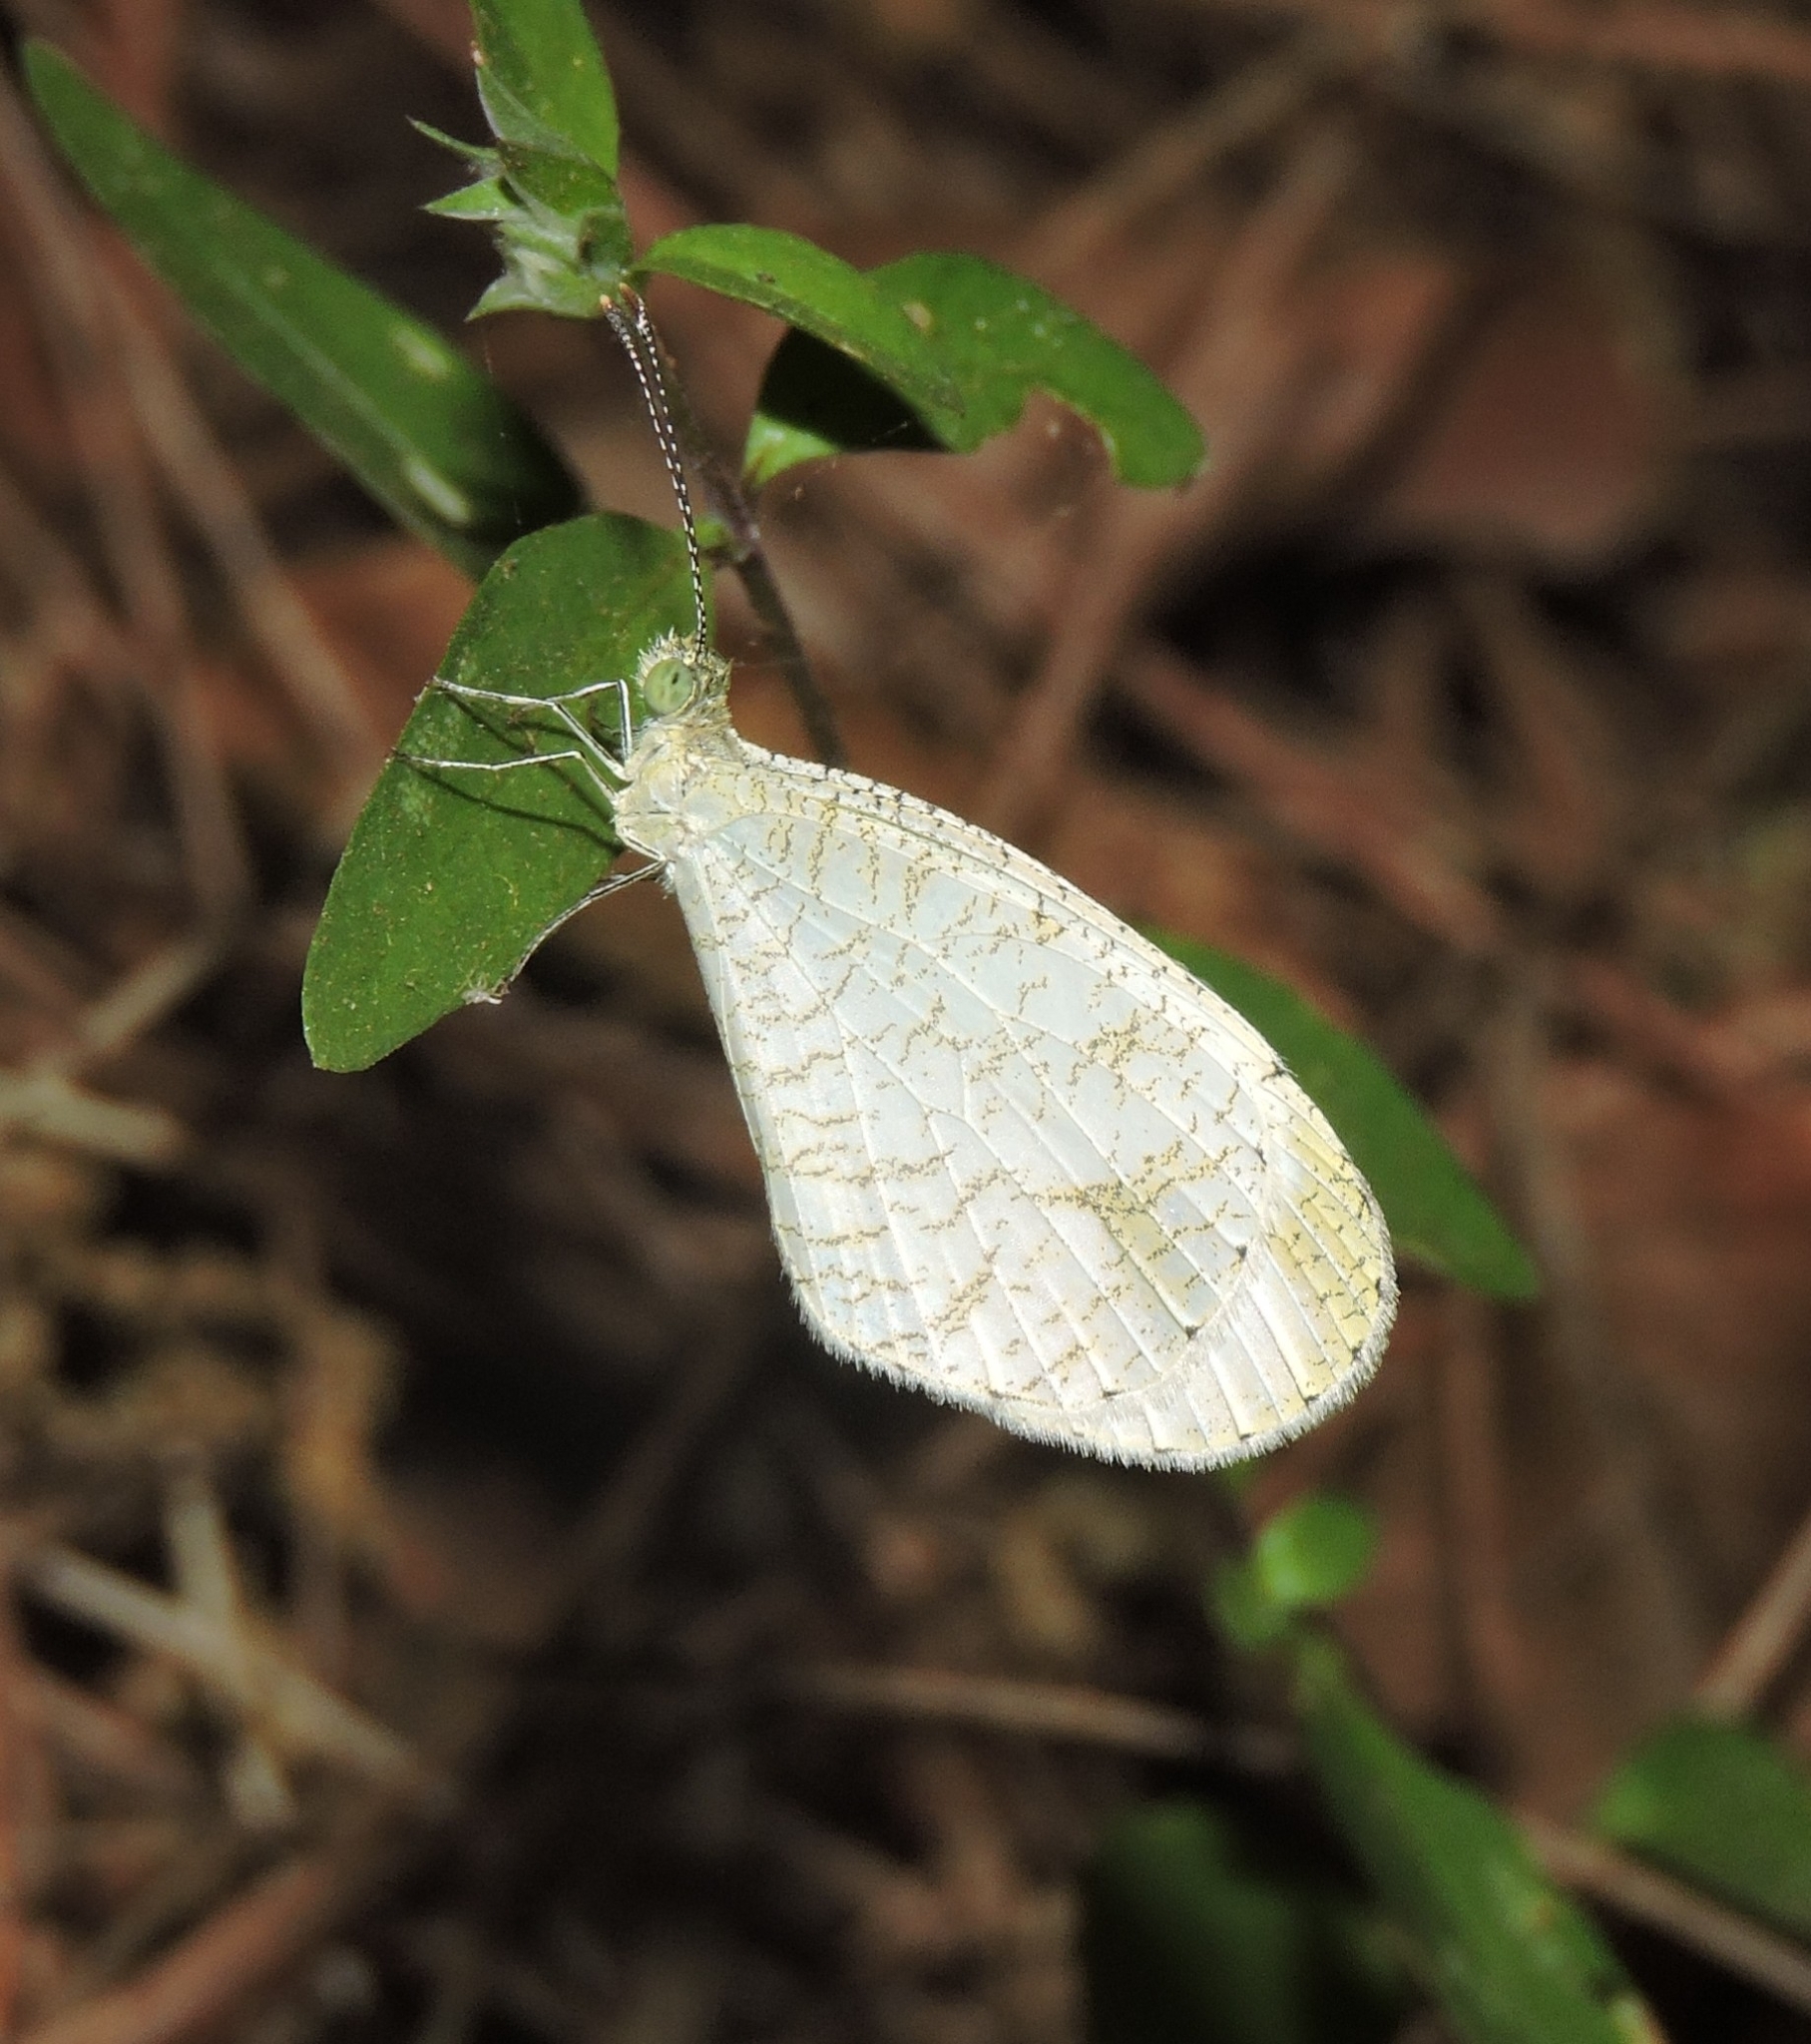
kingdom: Animalia
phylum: Arthropoda
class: Insecta
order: Lepidoptera
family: Pieridae
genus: Leptosia
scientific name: Leptosia nina
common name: Psyche
